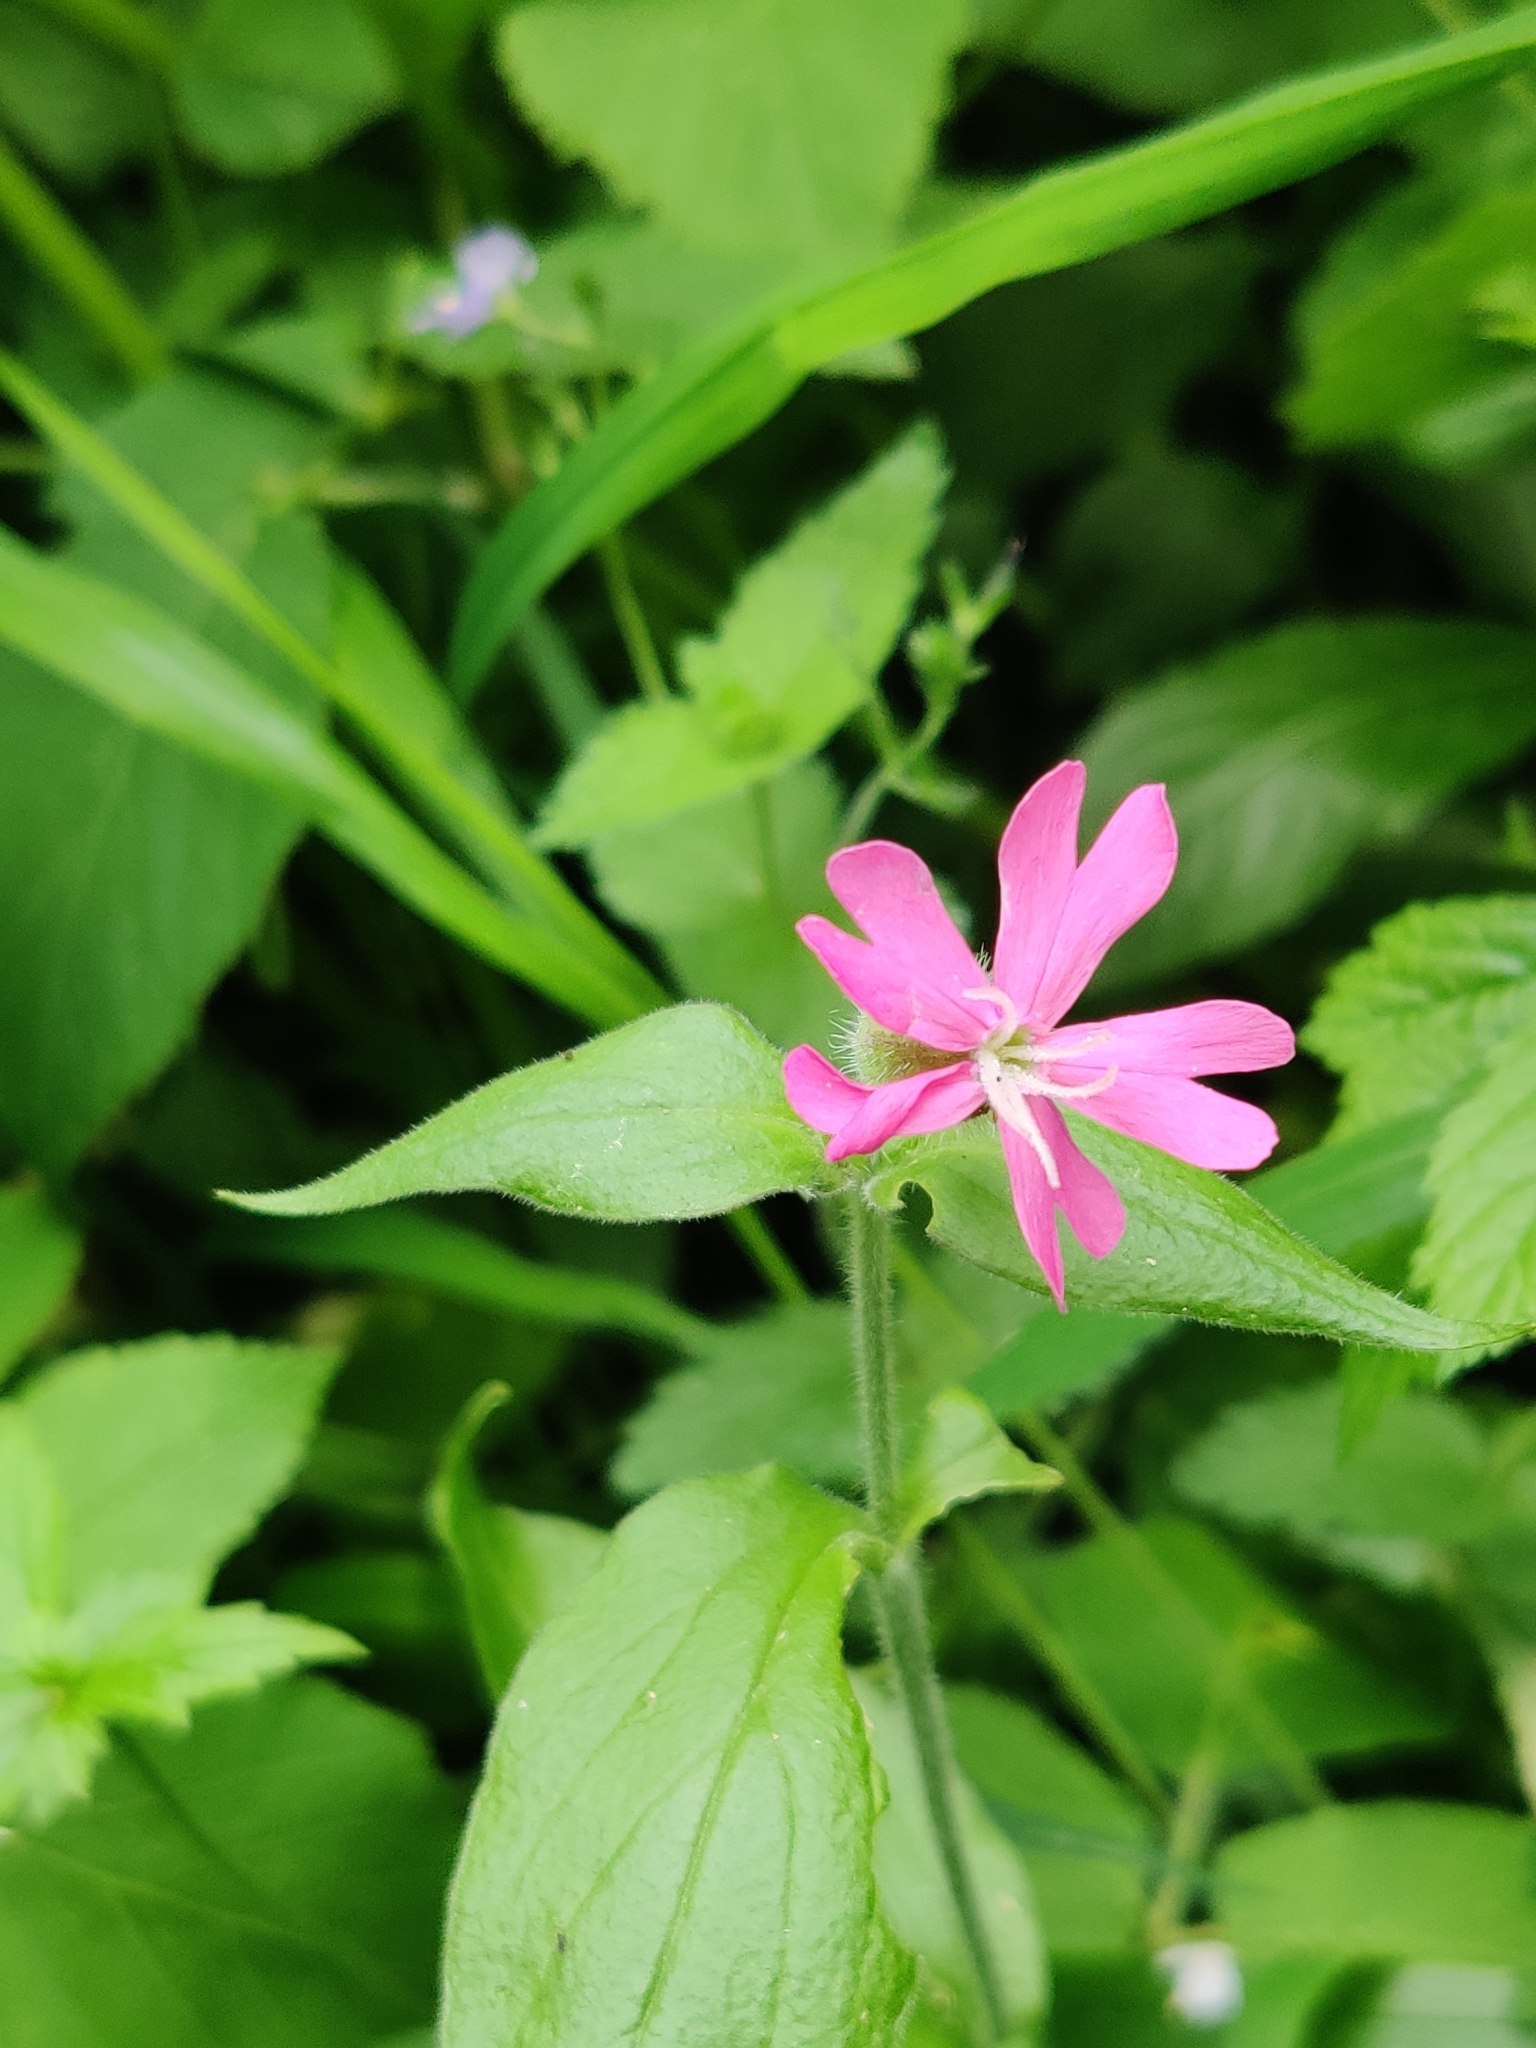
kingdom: Plantae
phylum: Tracheophyta
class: Magnoliopsida
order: Caryophyllales
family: Caryophyllaceae
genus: Silene
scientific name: Silene dioica
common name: Red campion
